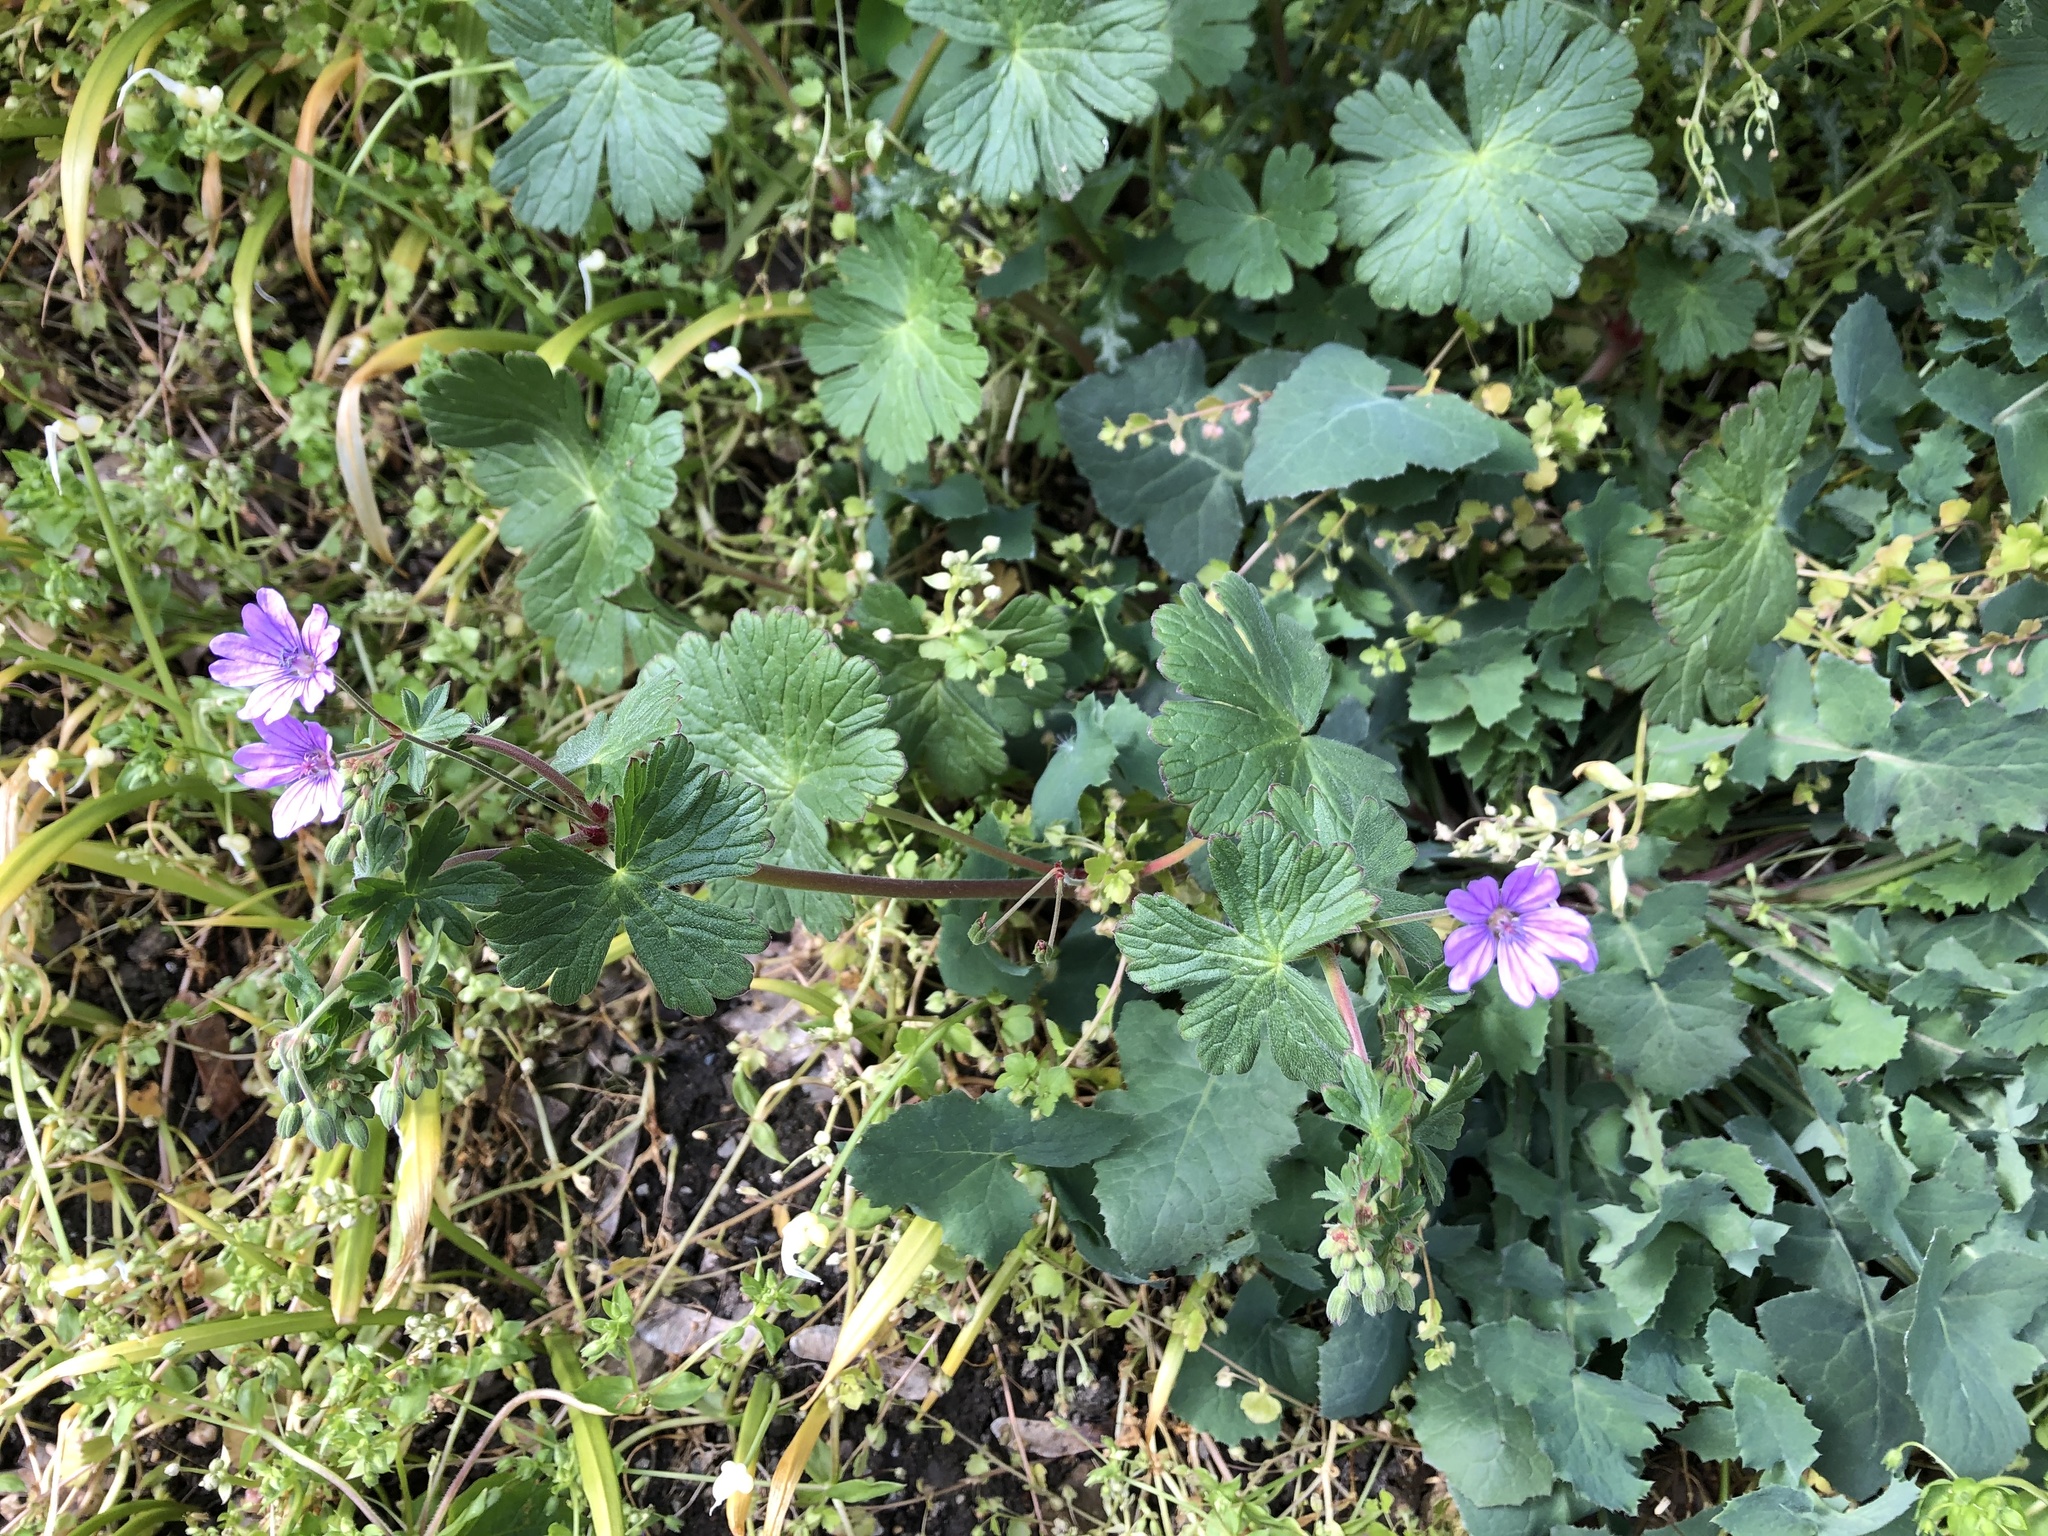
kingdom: Plantae
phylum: Tracheophyta
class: Magnoliopsida
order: Geraniales
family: Geraniaceae
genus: Geranium
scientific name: Geranium pyrenaicum
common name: Hedgerow crane's-bill
